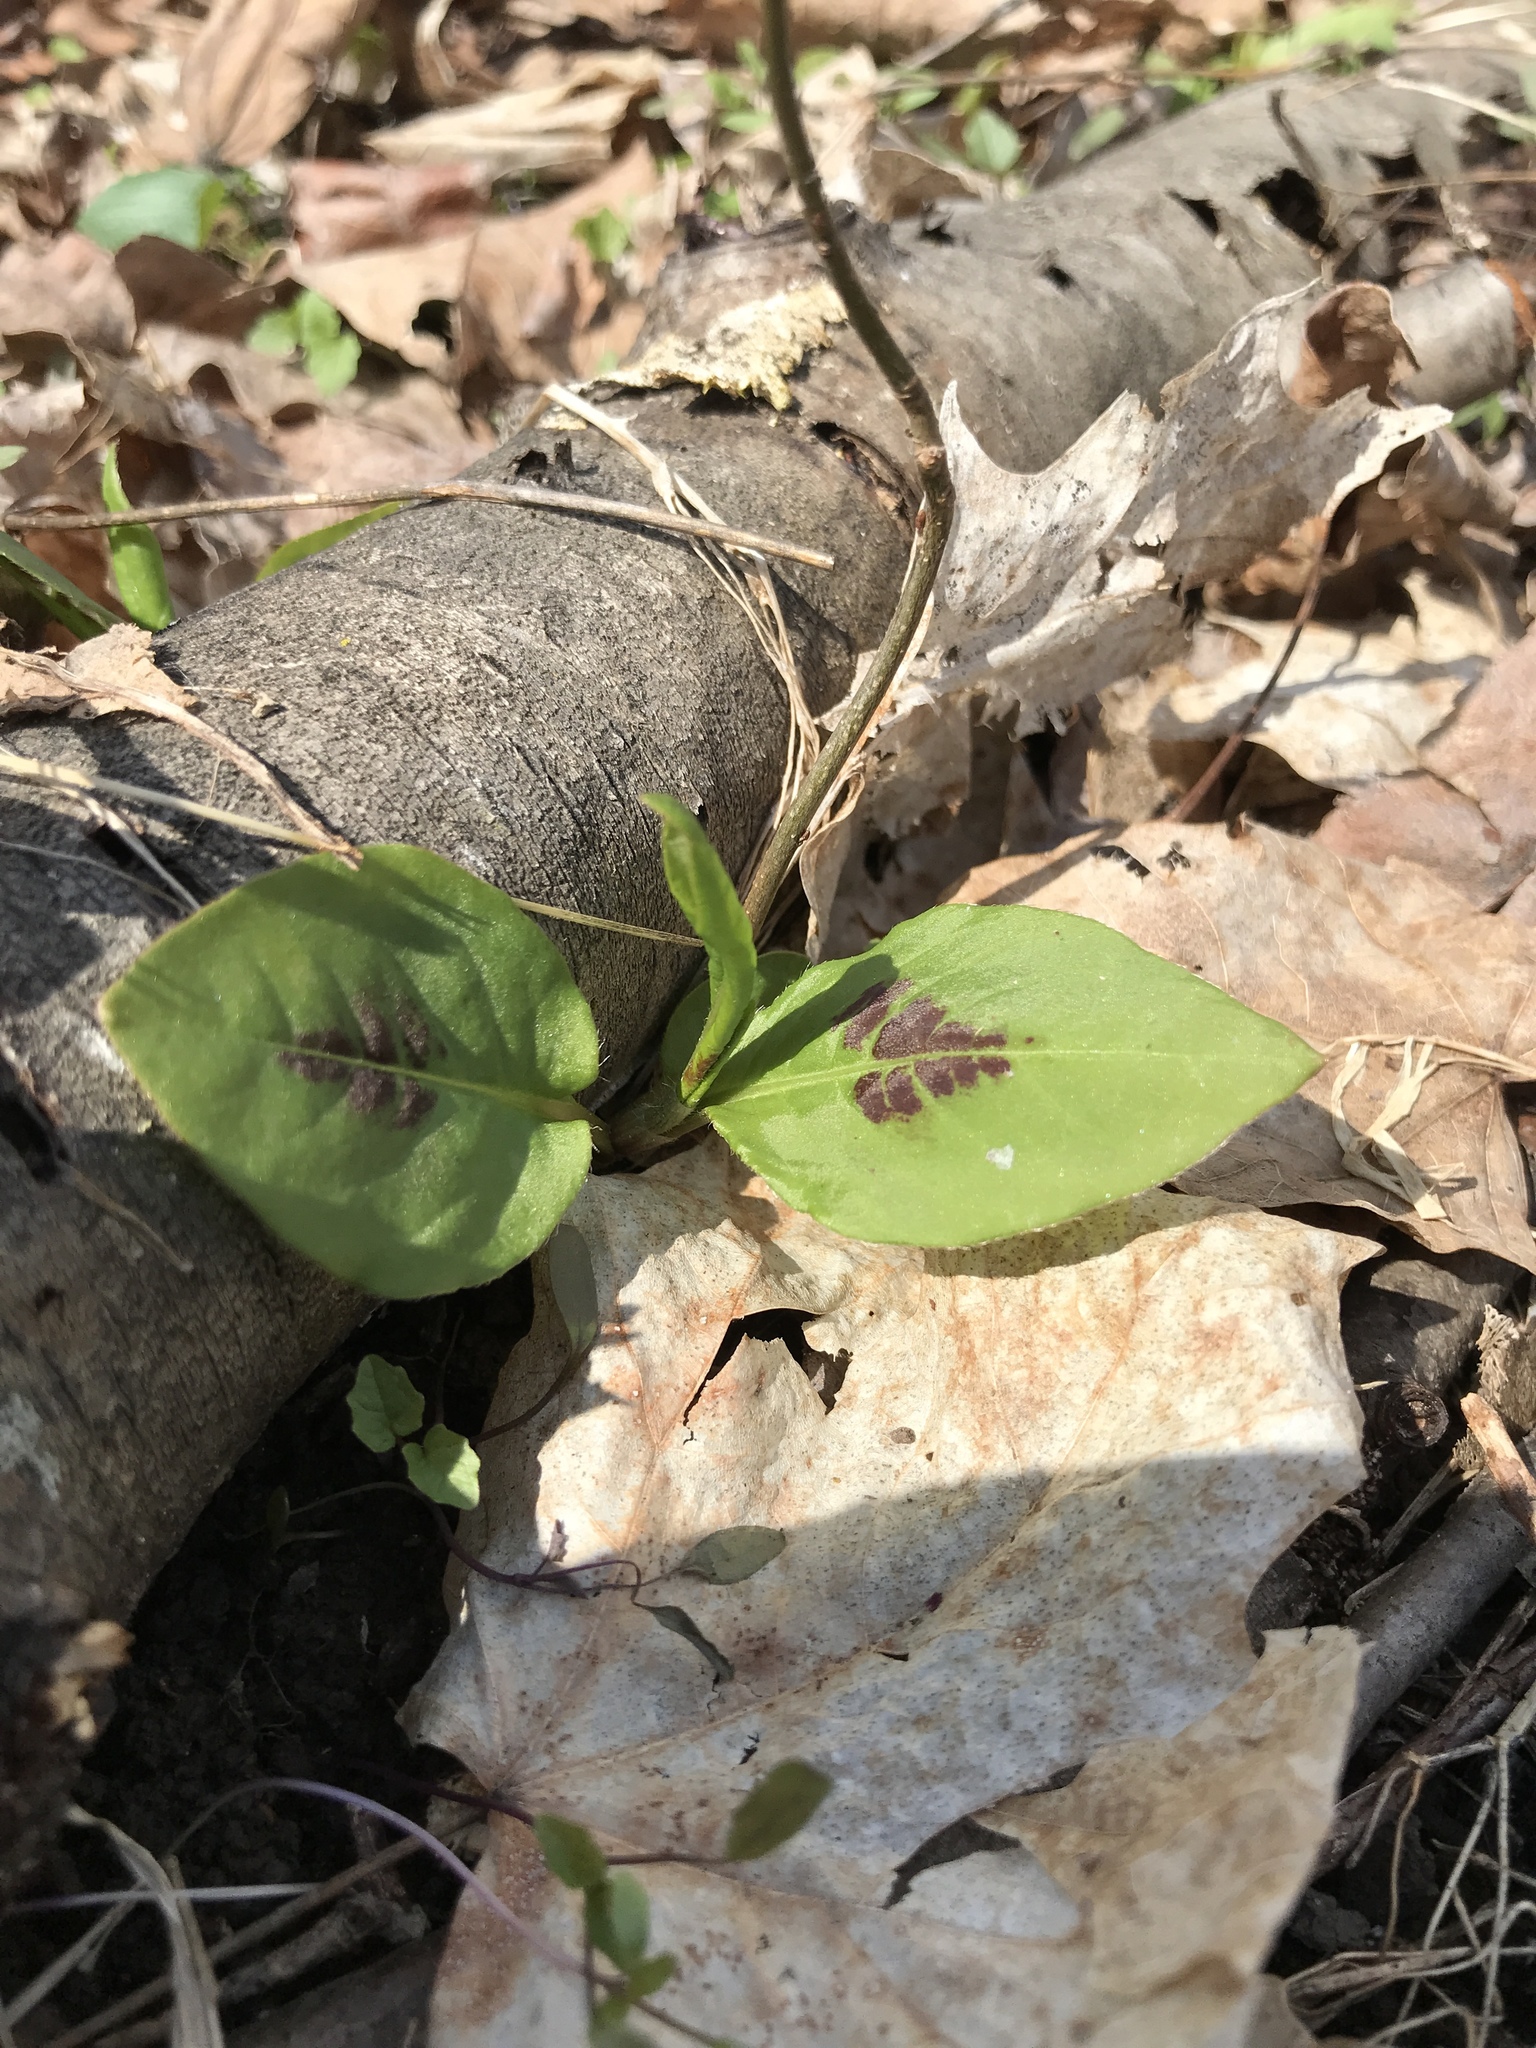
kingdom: Plantae
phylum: Tracheophyta
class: Magnoliopsida
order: Caryophyllales
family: Polygonaceae
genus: Persicaria
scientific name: Persicaria virginiana
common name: Jumpseed
